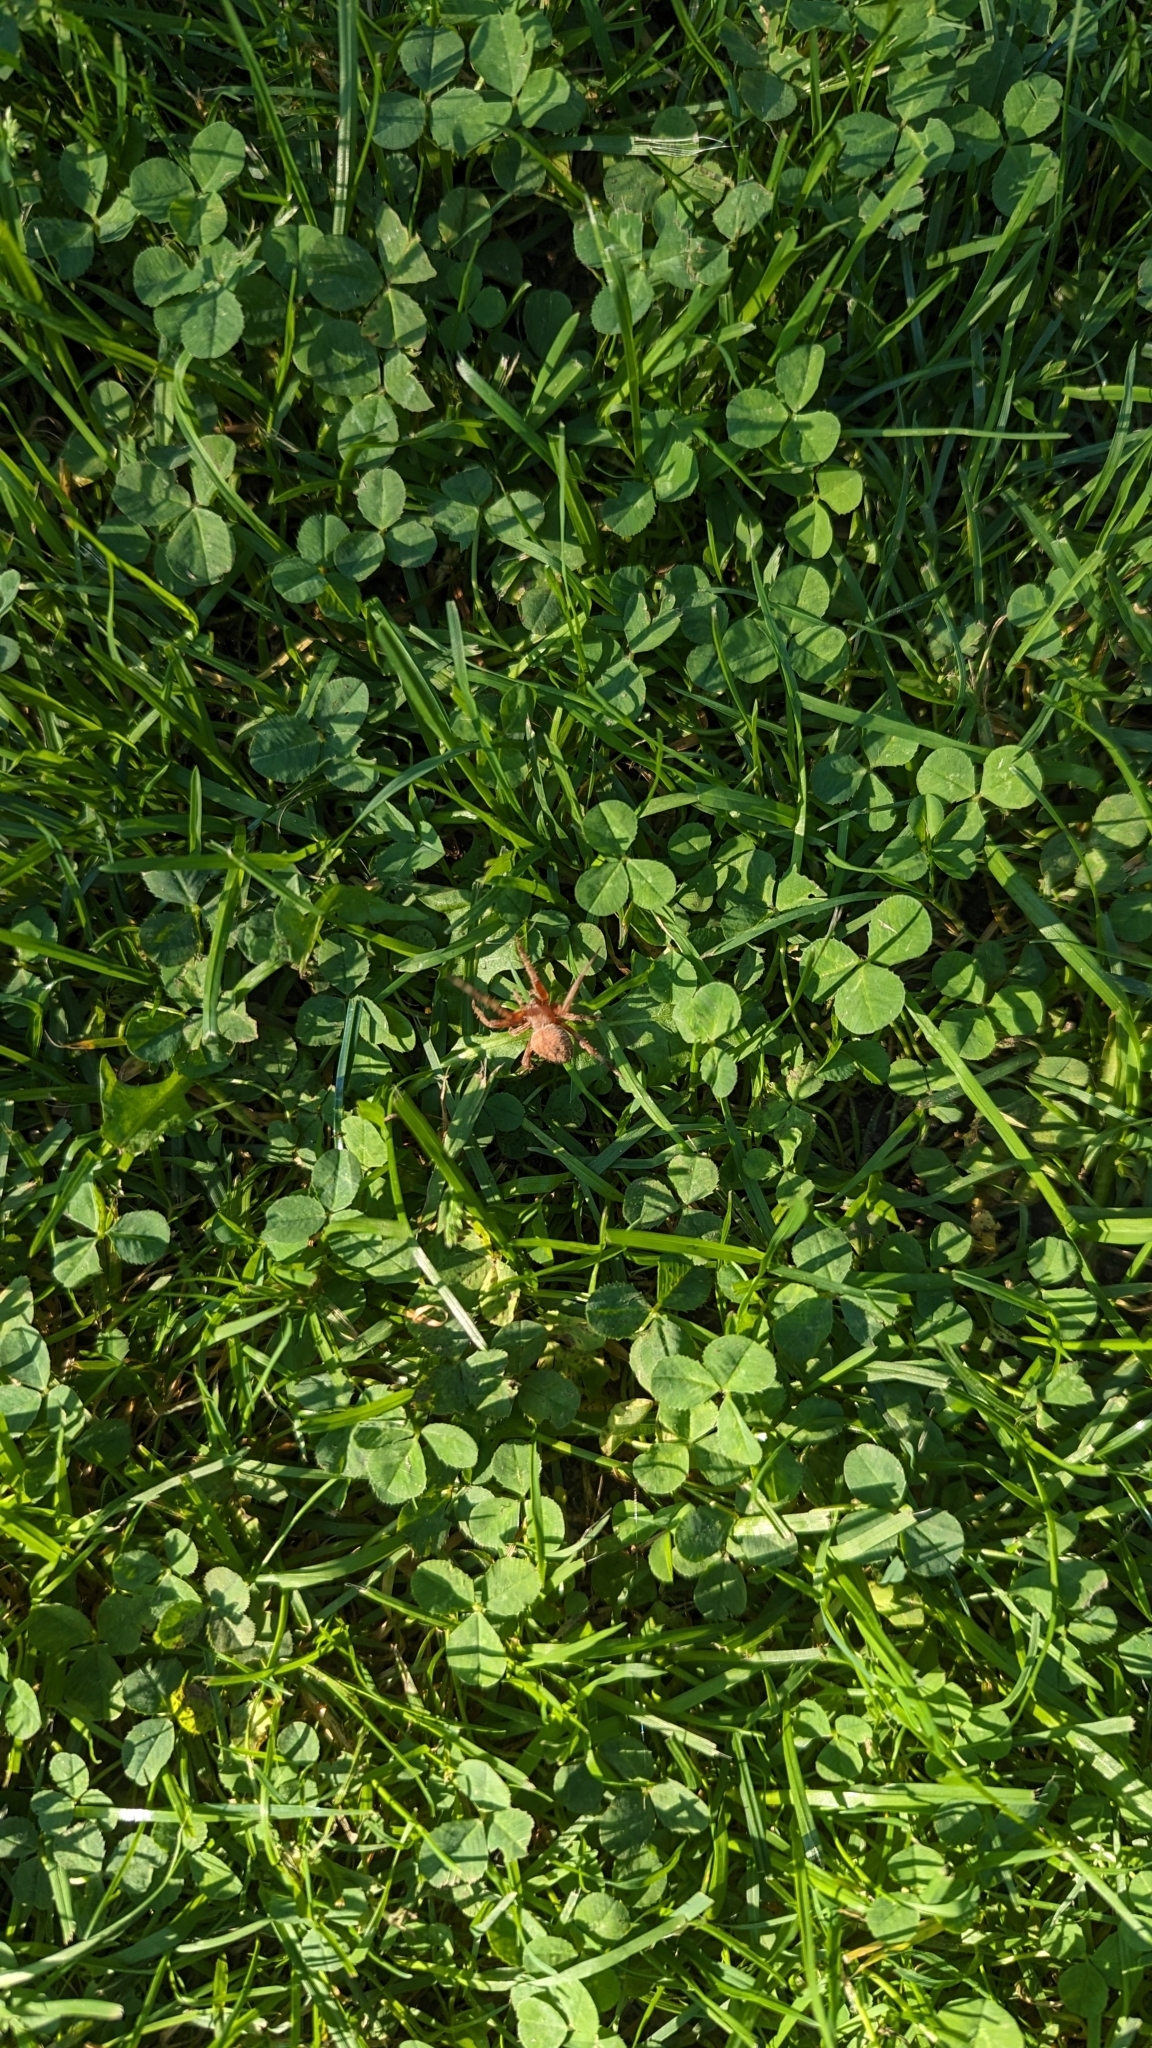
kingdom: Animalia
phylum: Arthropoda
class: Arachnida
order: Araneae
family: Araneidae
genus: Neoscona
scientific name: Neoscona crucifera
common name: Spotted orbweaver
